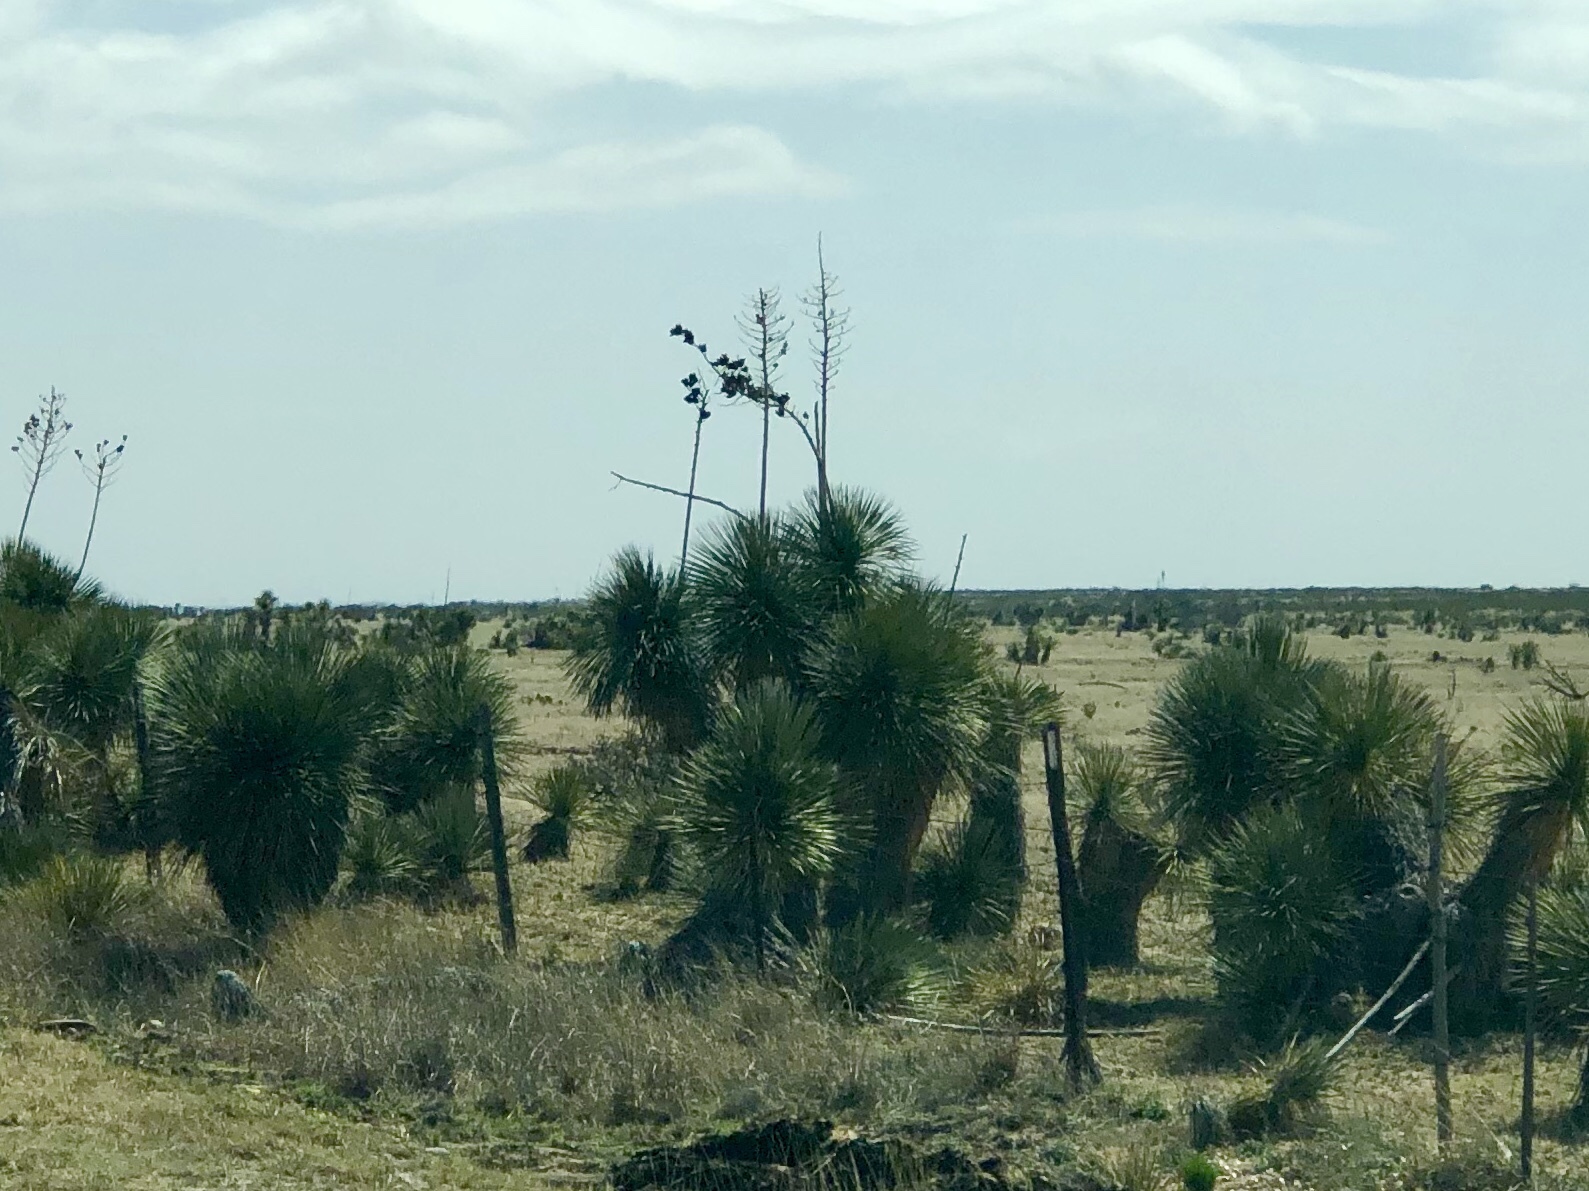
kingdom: Plantae
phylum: Tracheophyta
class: Liliopsida
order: Asparagales
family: Asparagaceae
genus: Yucca
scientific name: Yucca elata
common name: Palmella
